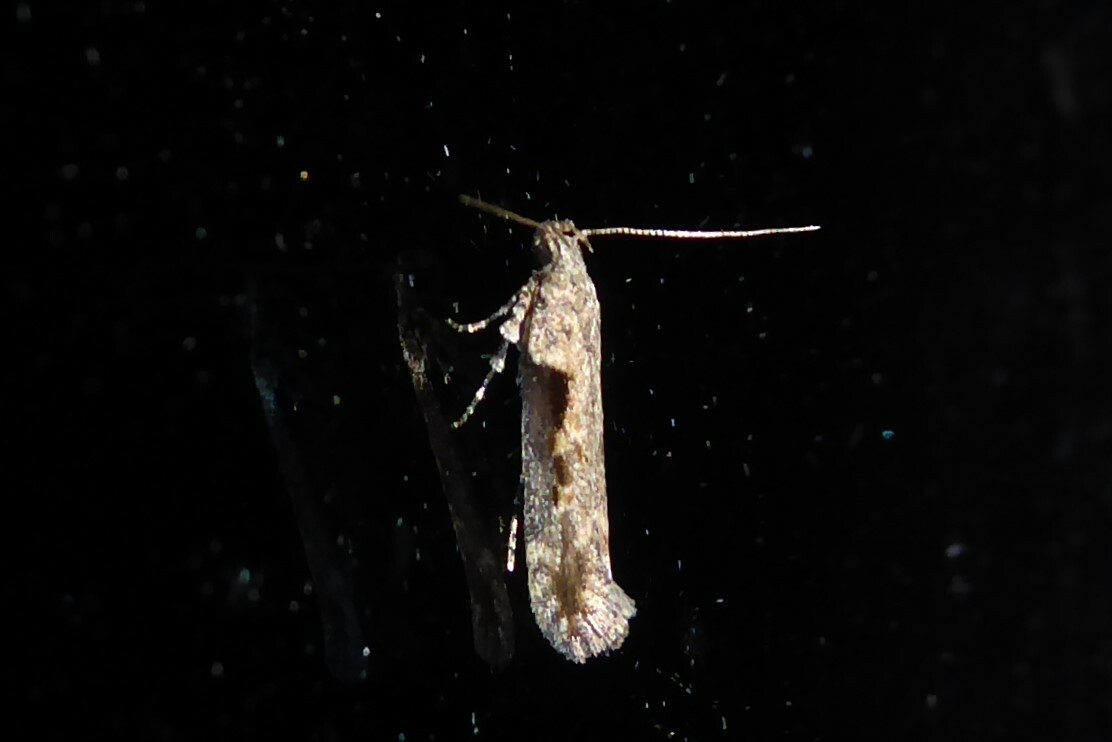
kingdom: Animalia
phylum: Arthropoda
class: Insecta
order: Lepidoptera
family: Gelechiidae
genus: Symmetrischema
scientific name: Symmetrischema tangolias
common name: Moth
